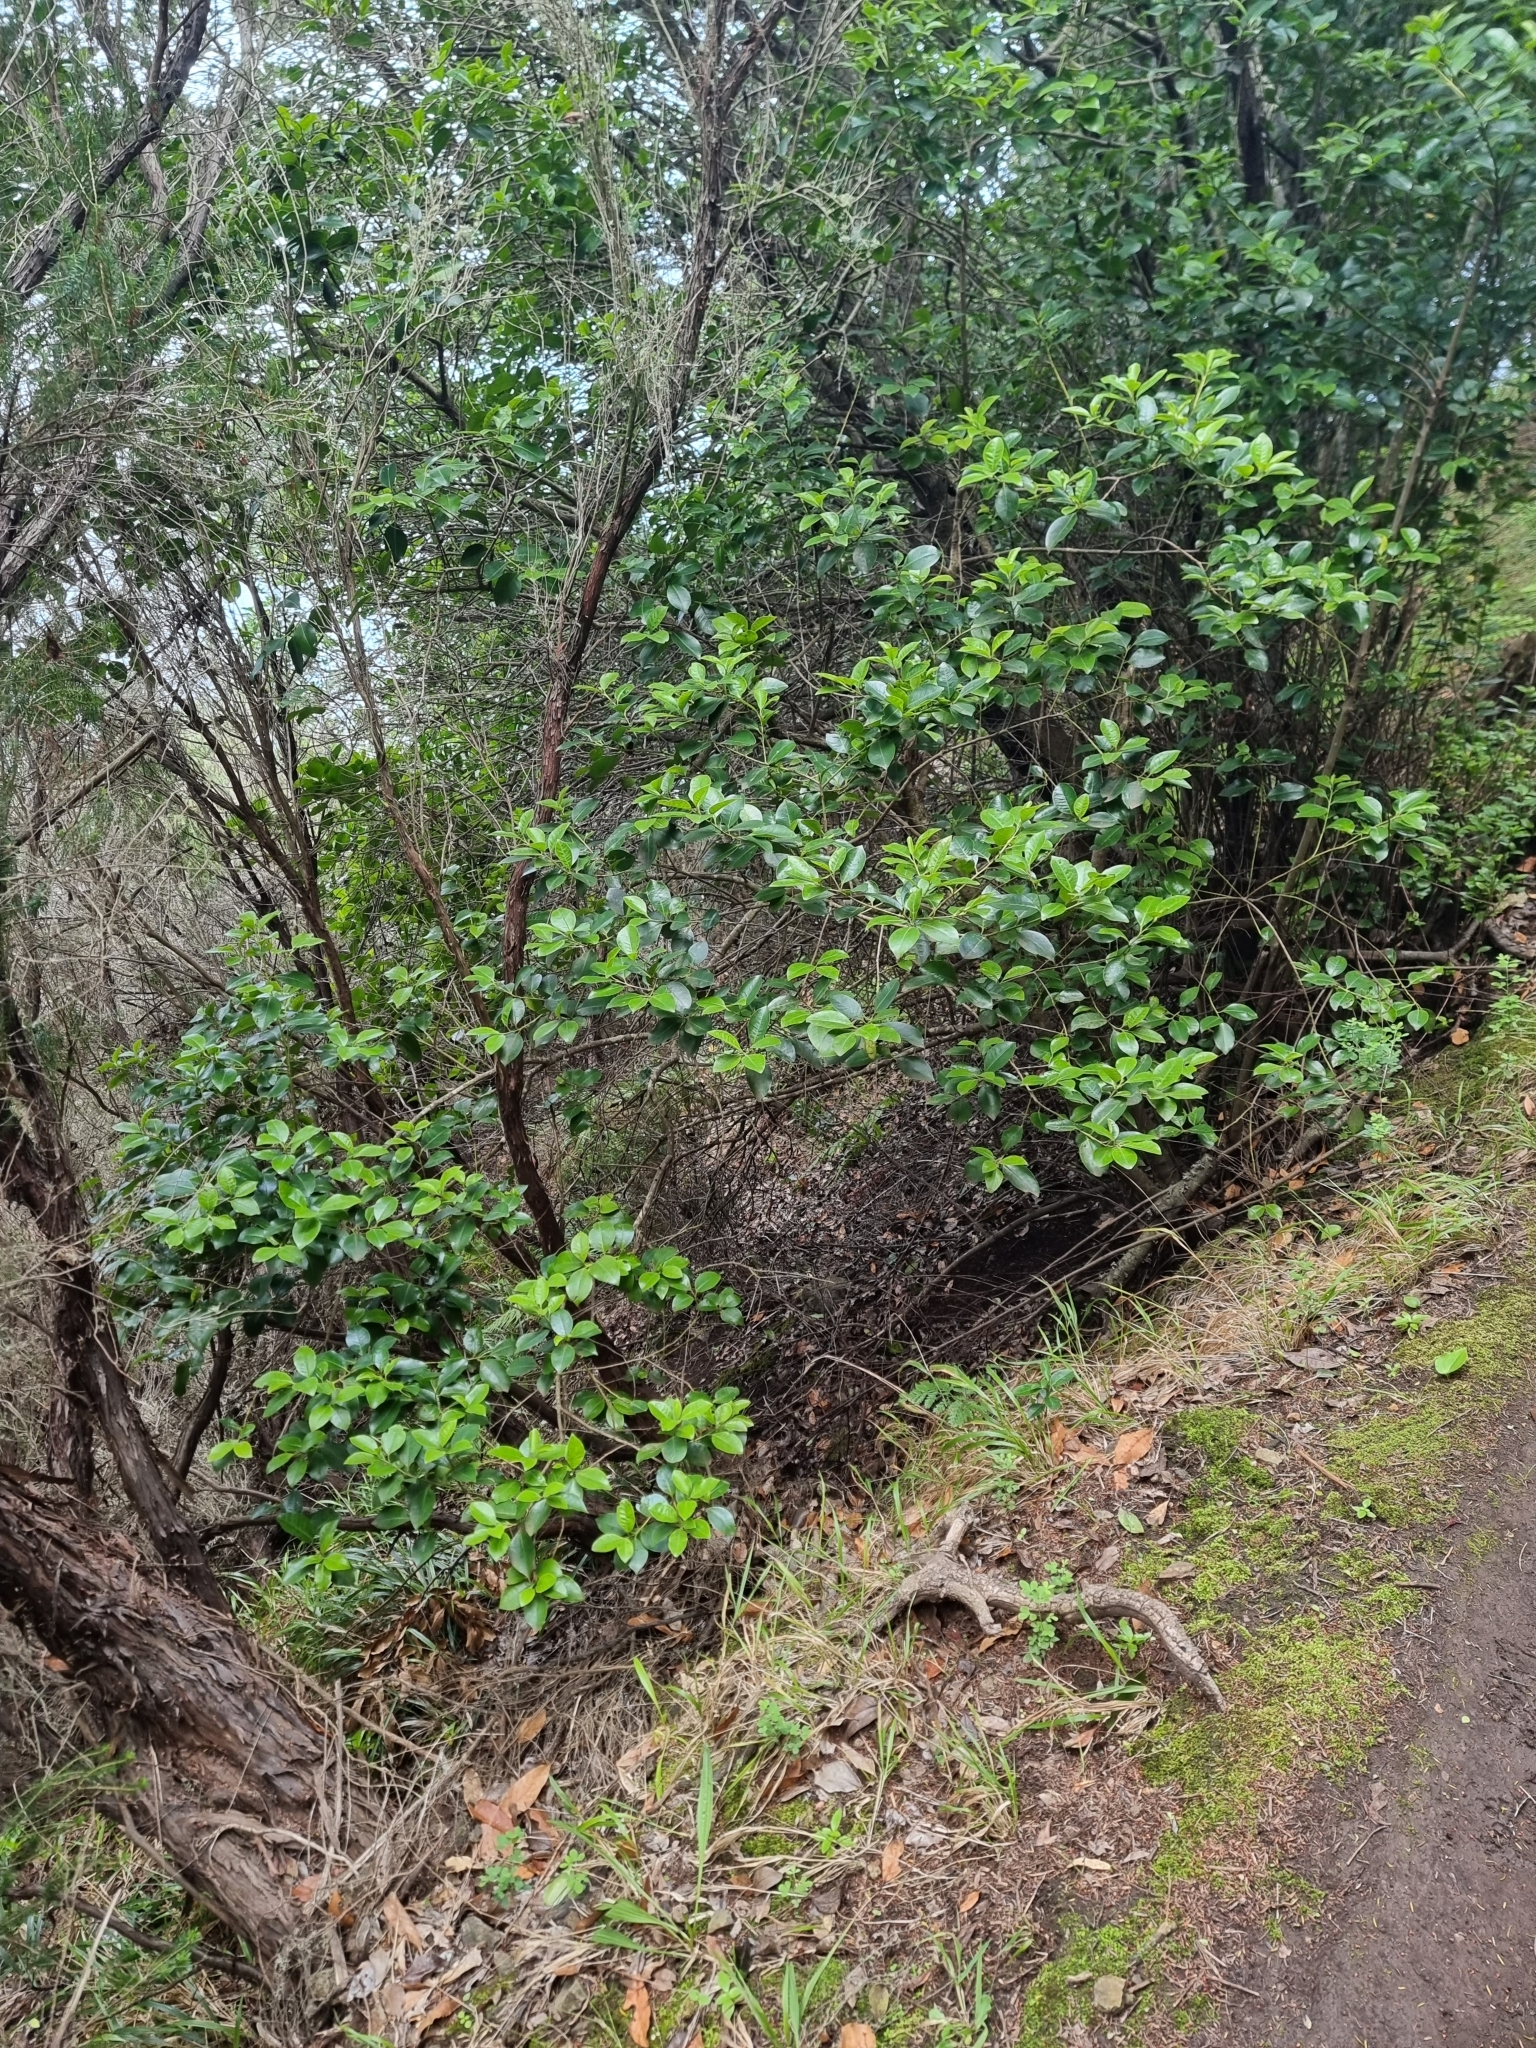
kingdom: Plantae
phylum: Tracheophyta
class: Magnoliopsida
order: Aquifoliales
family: Aquifoliaceae
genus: Ilex
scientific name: Ilex canariensis
